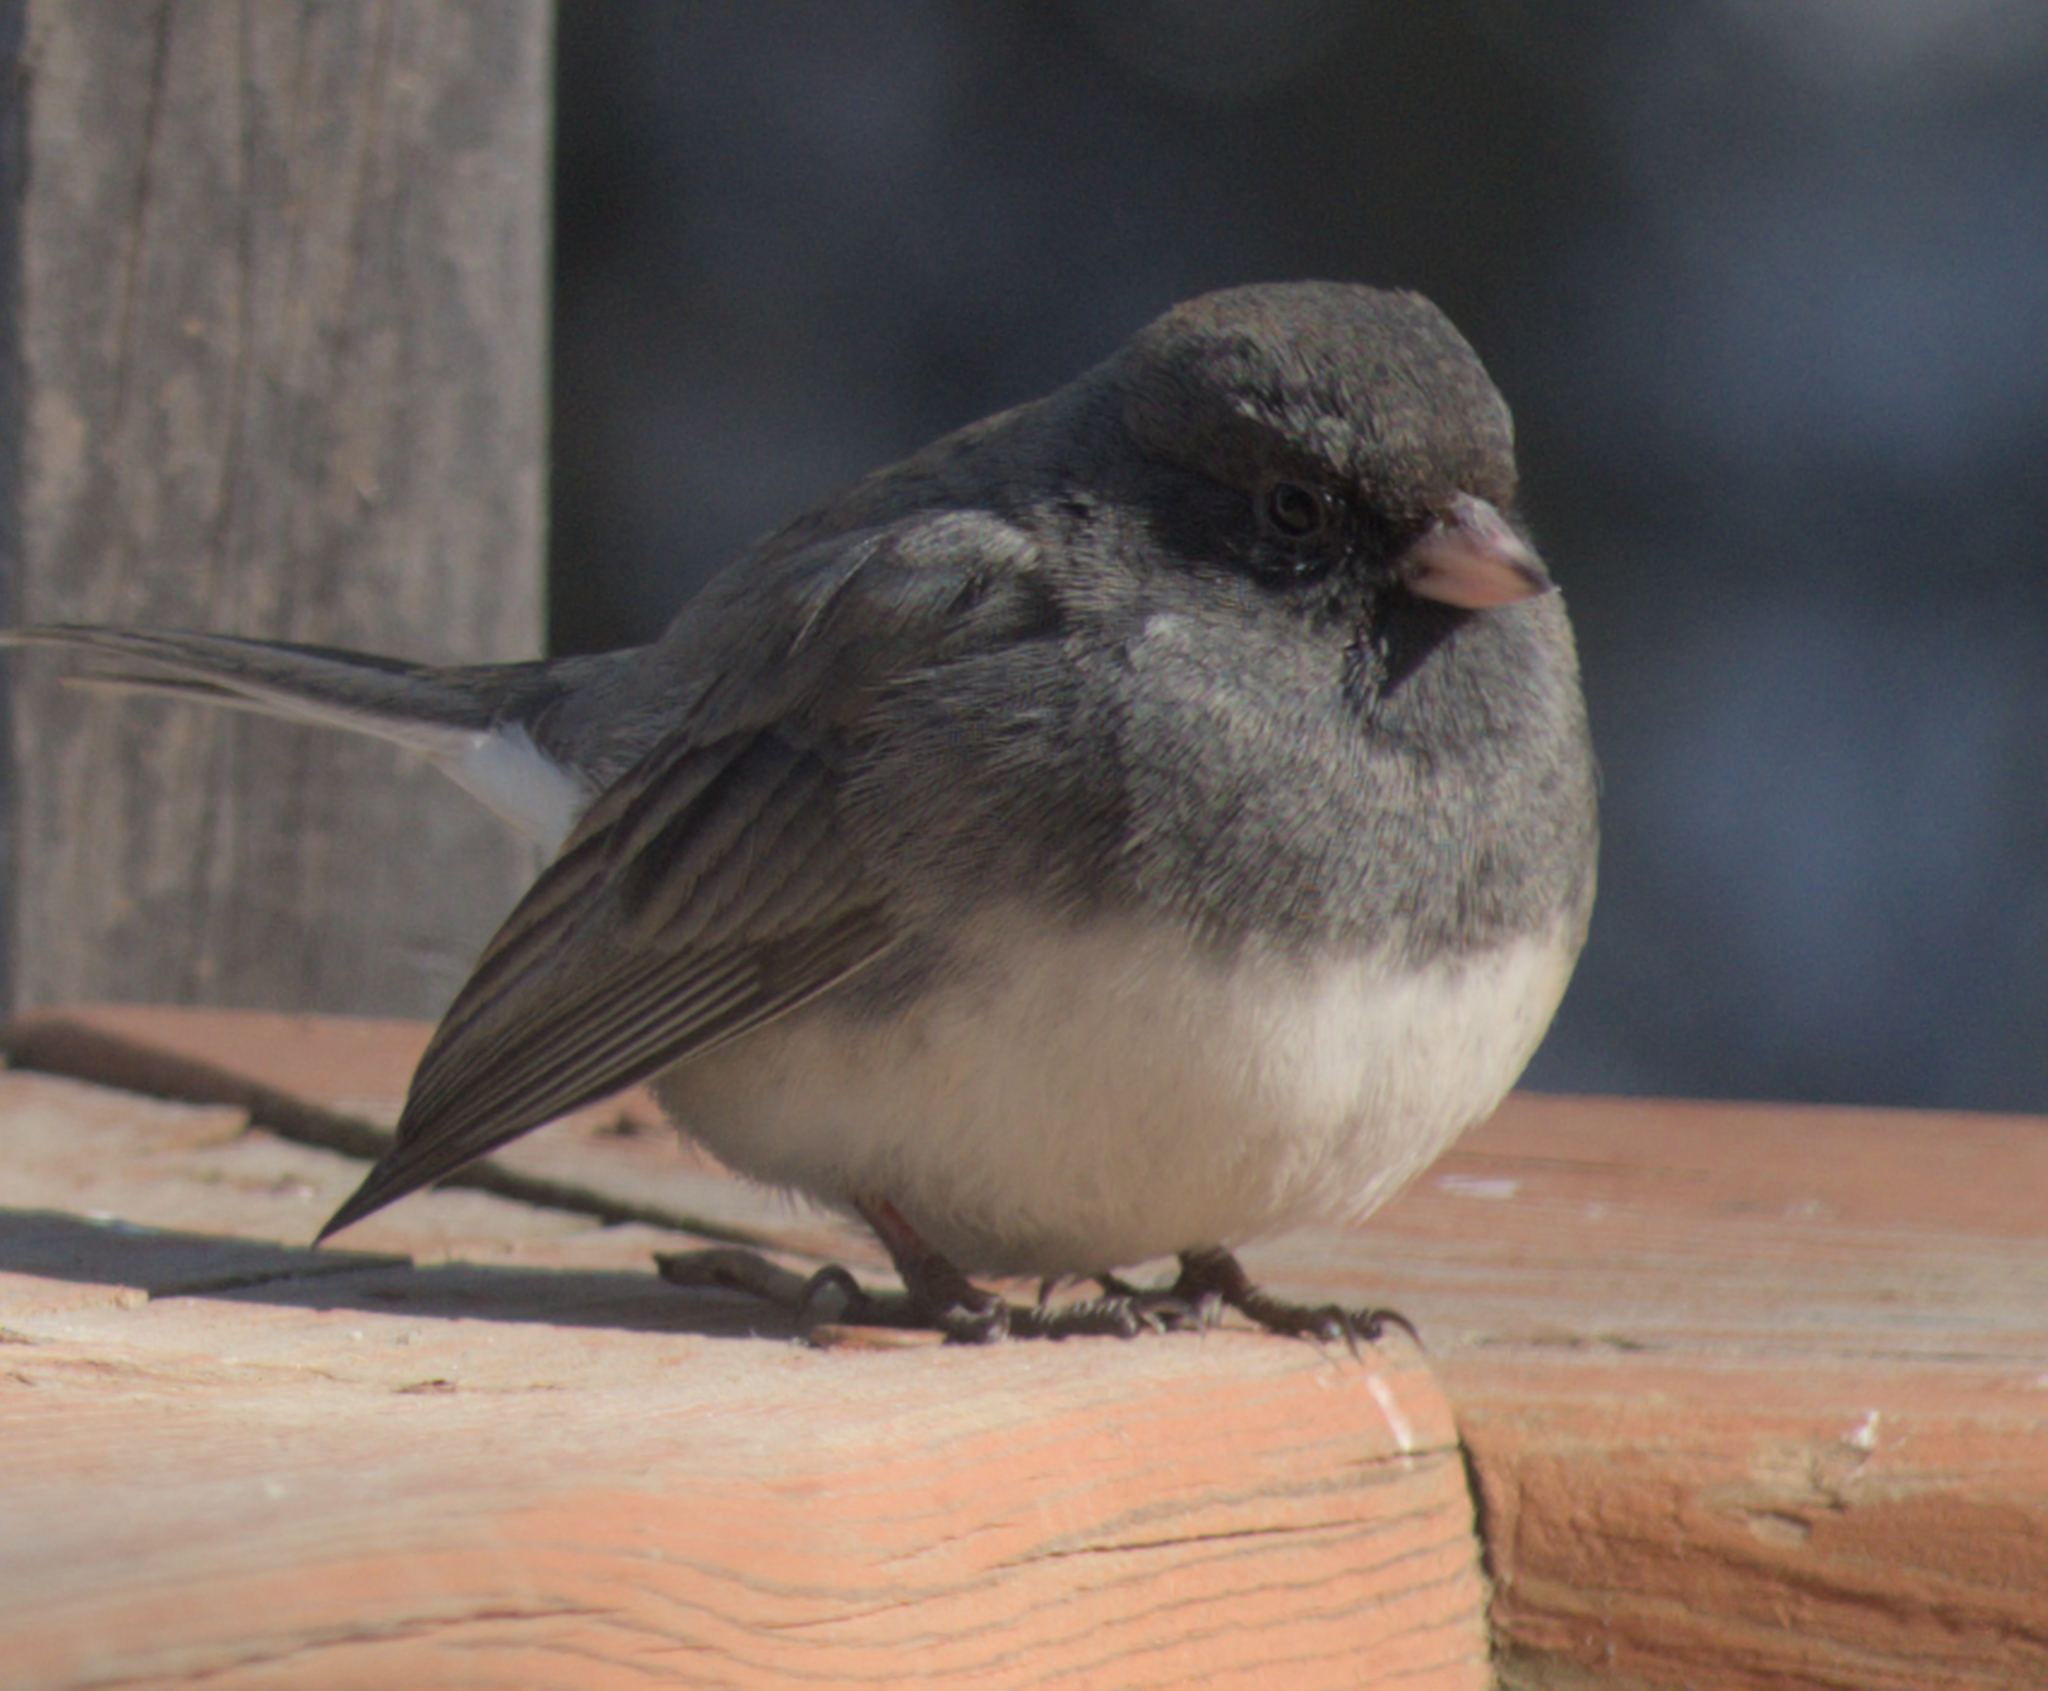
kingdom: Animalia
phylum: Chordata
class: Aves
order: Passeriformes
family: Passerellidae
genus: Junco
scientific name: Junco hyemalis
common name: Dark-eyed junco
